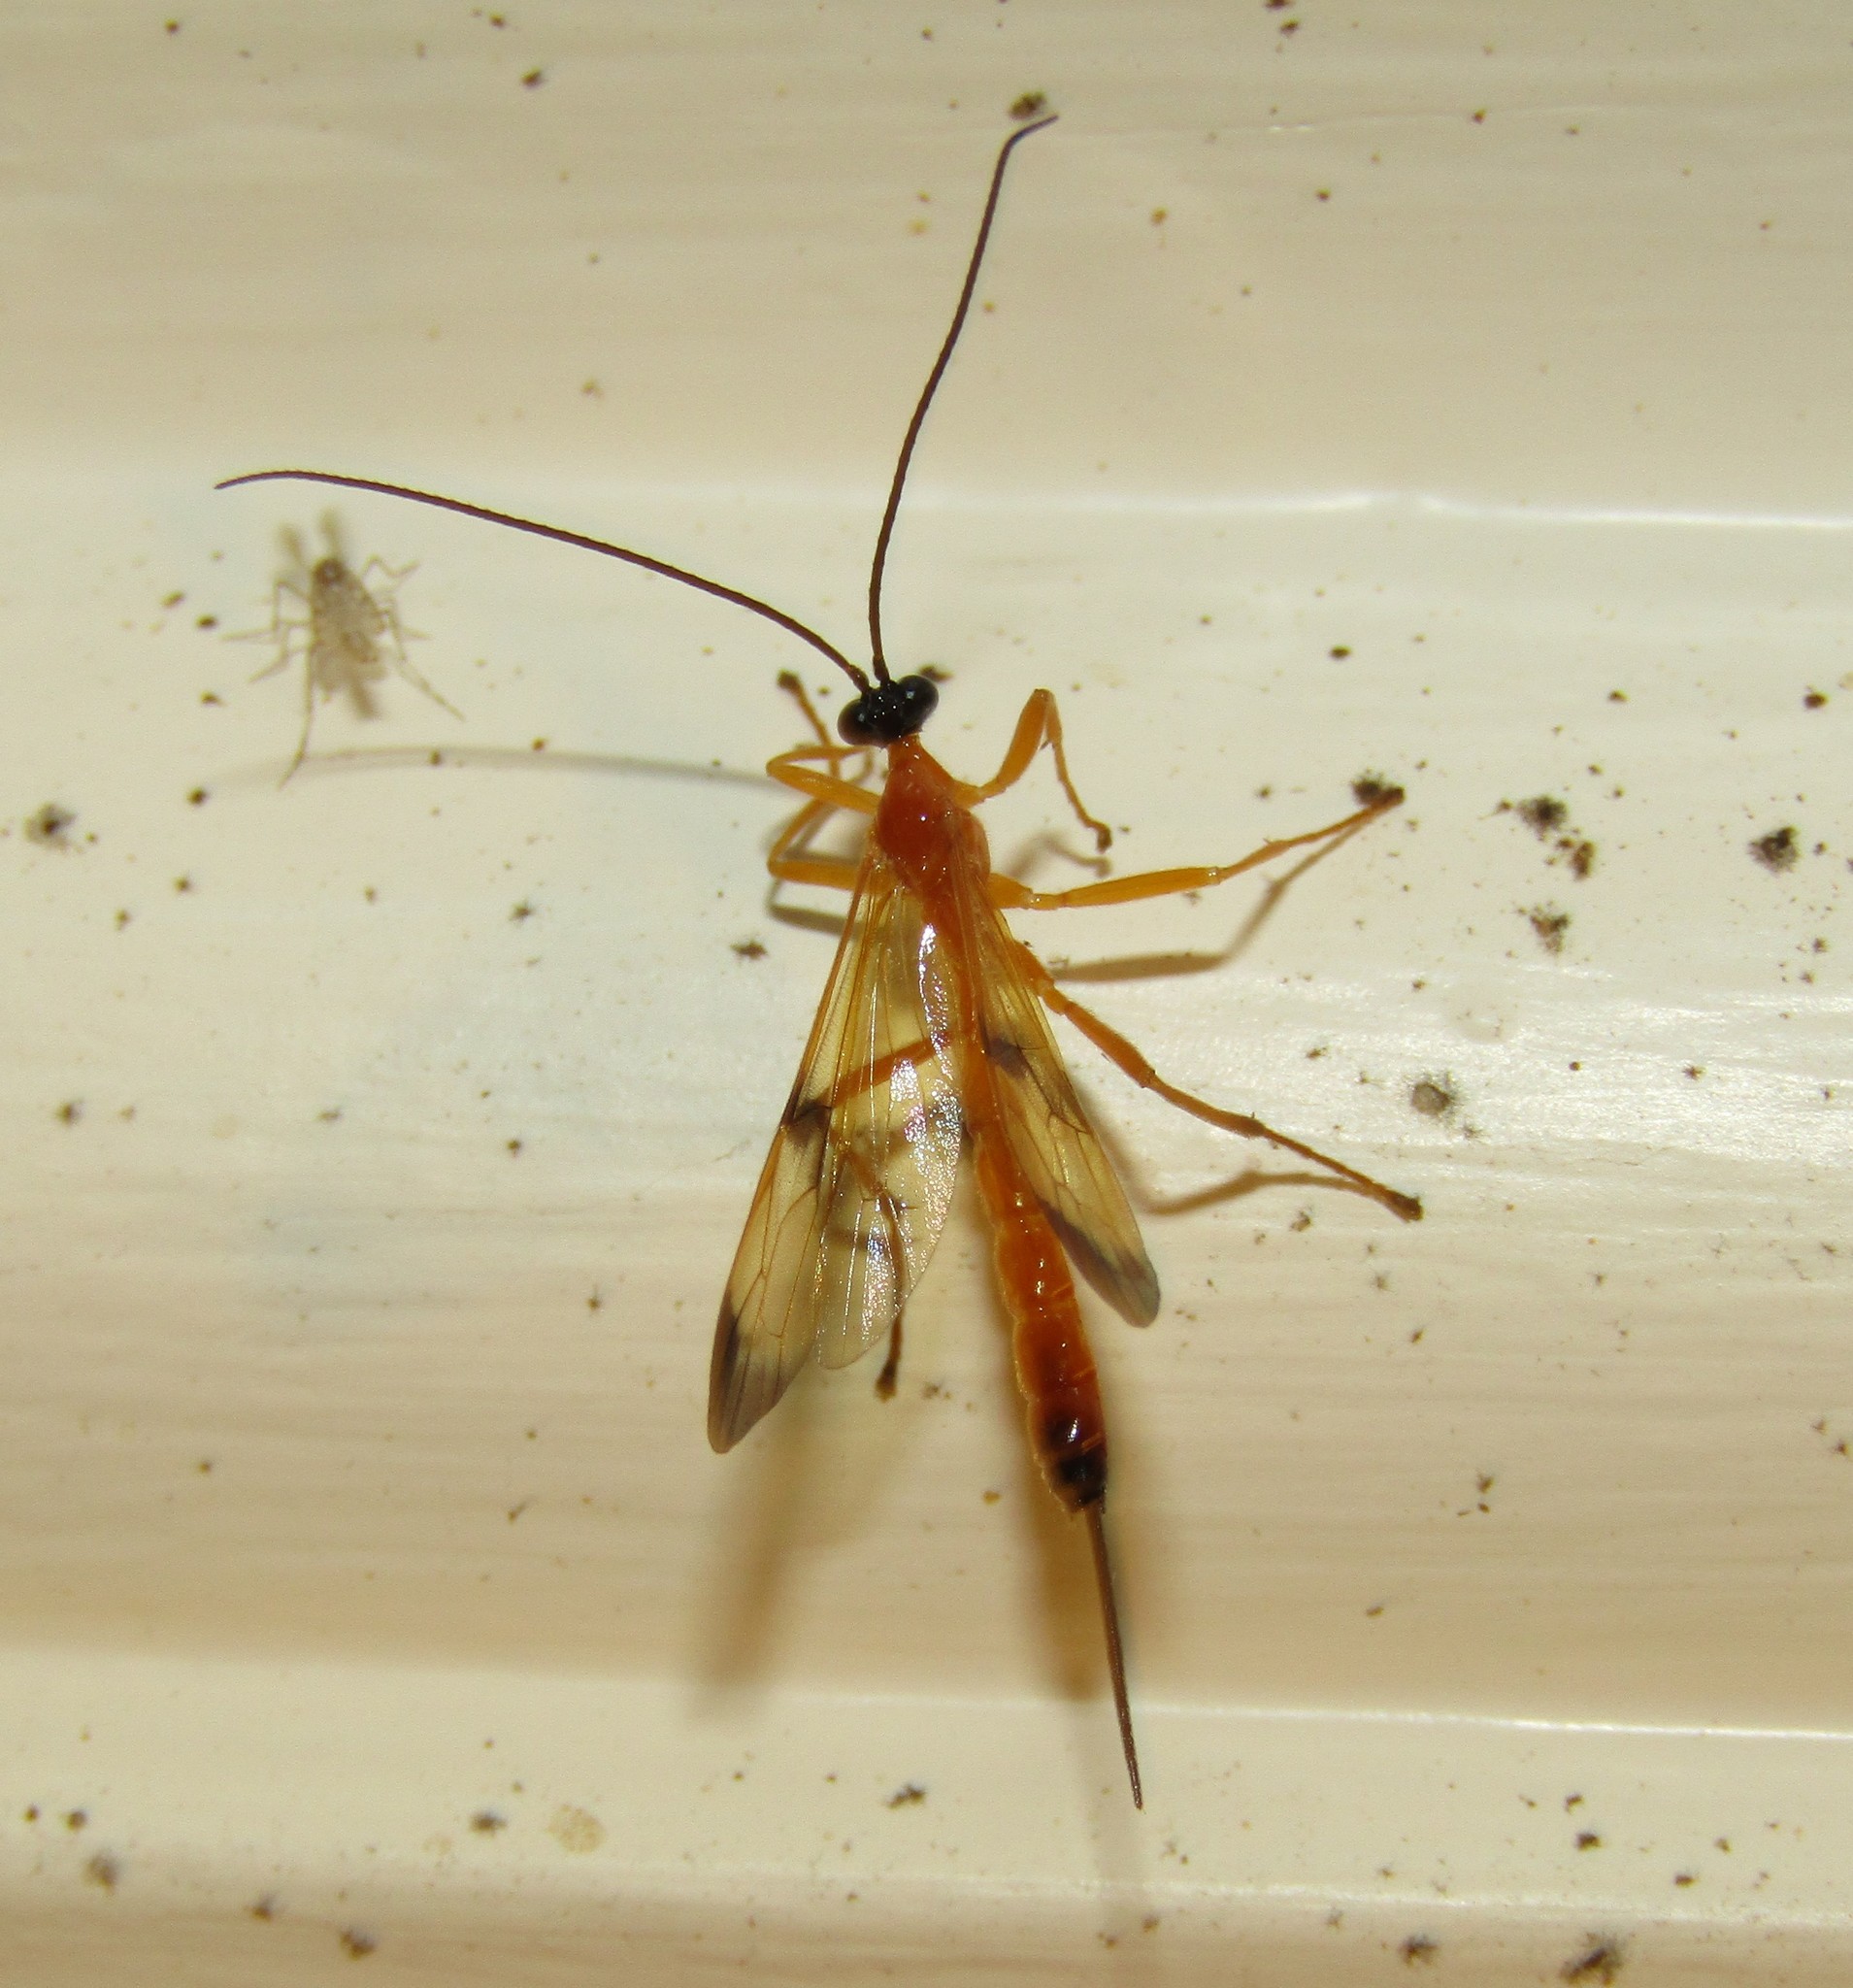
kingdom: Animalia
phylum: Arthropoda
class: Insecta
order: Hymenoptera
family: Ichneumonidae
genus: Acrotaphus
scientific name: Acrotaphus wiltii
